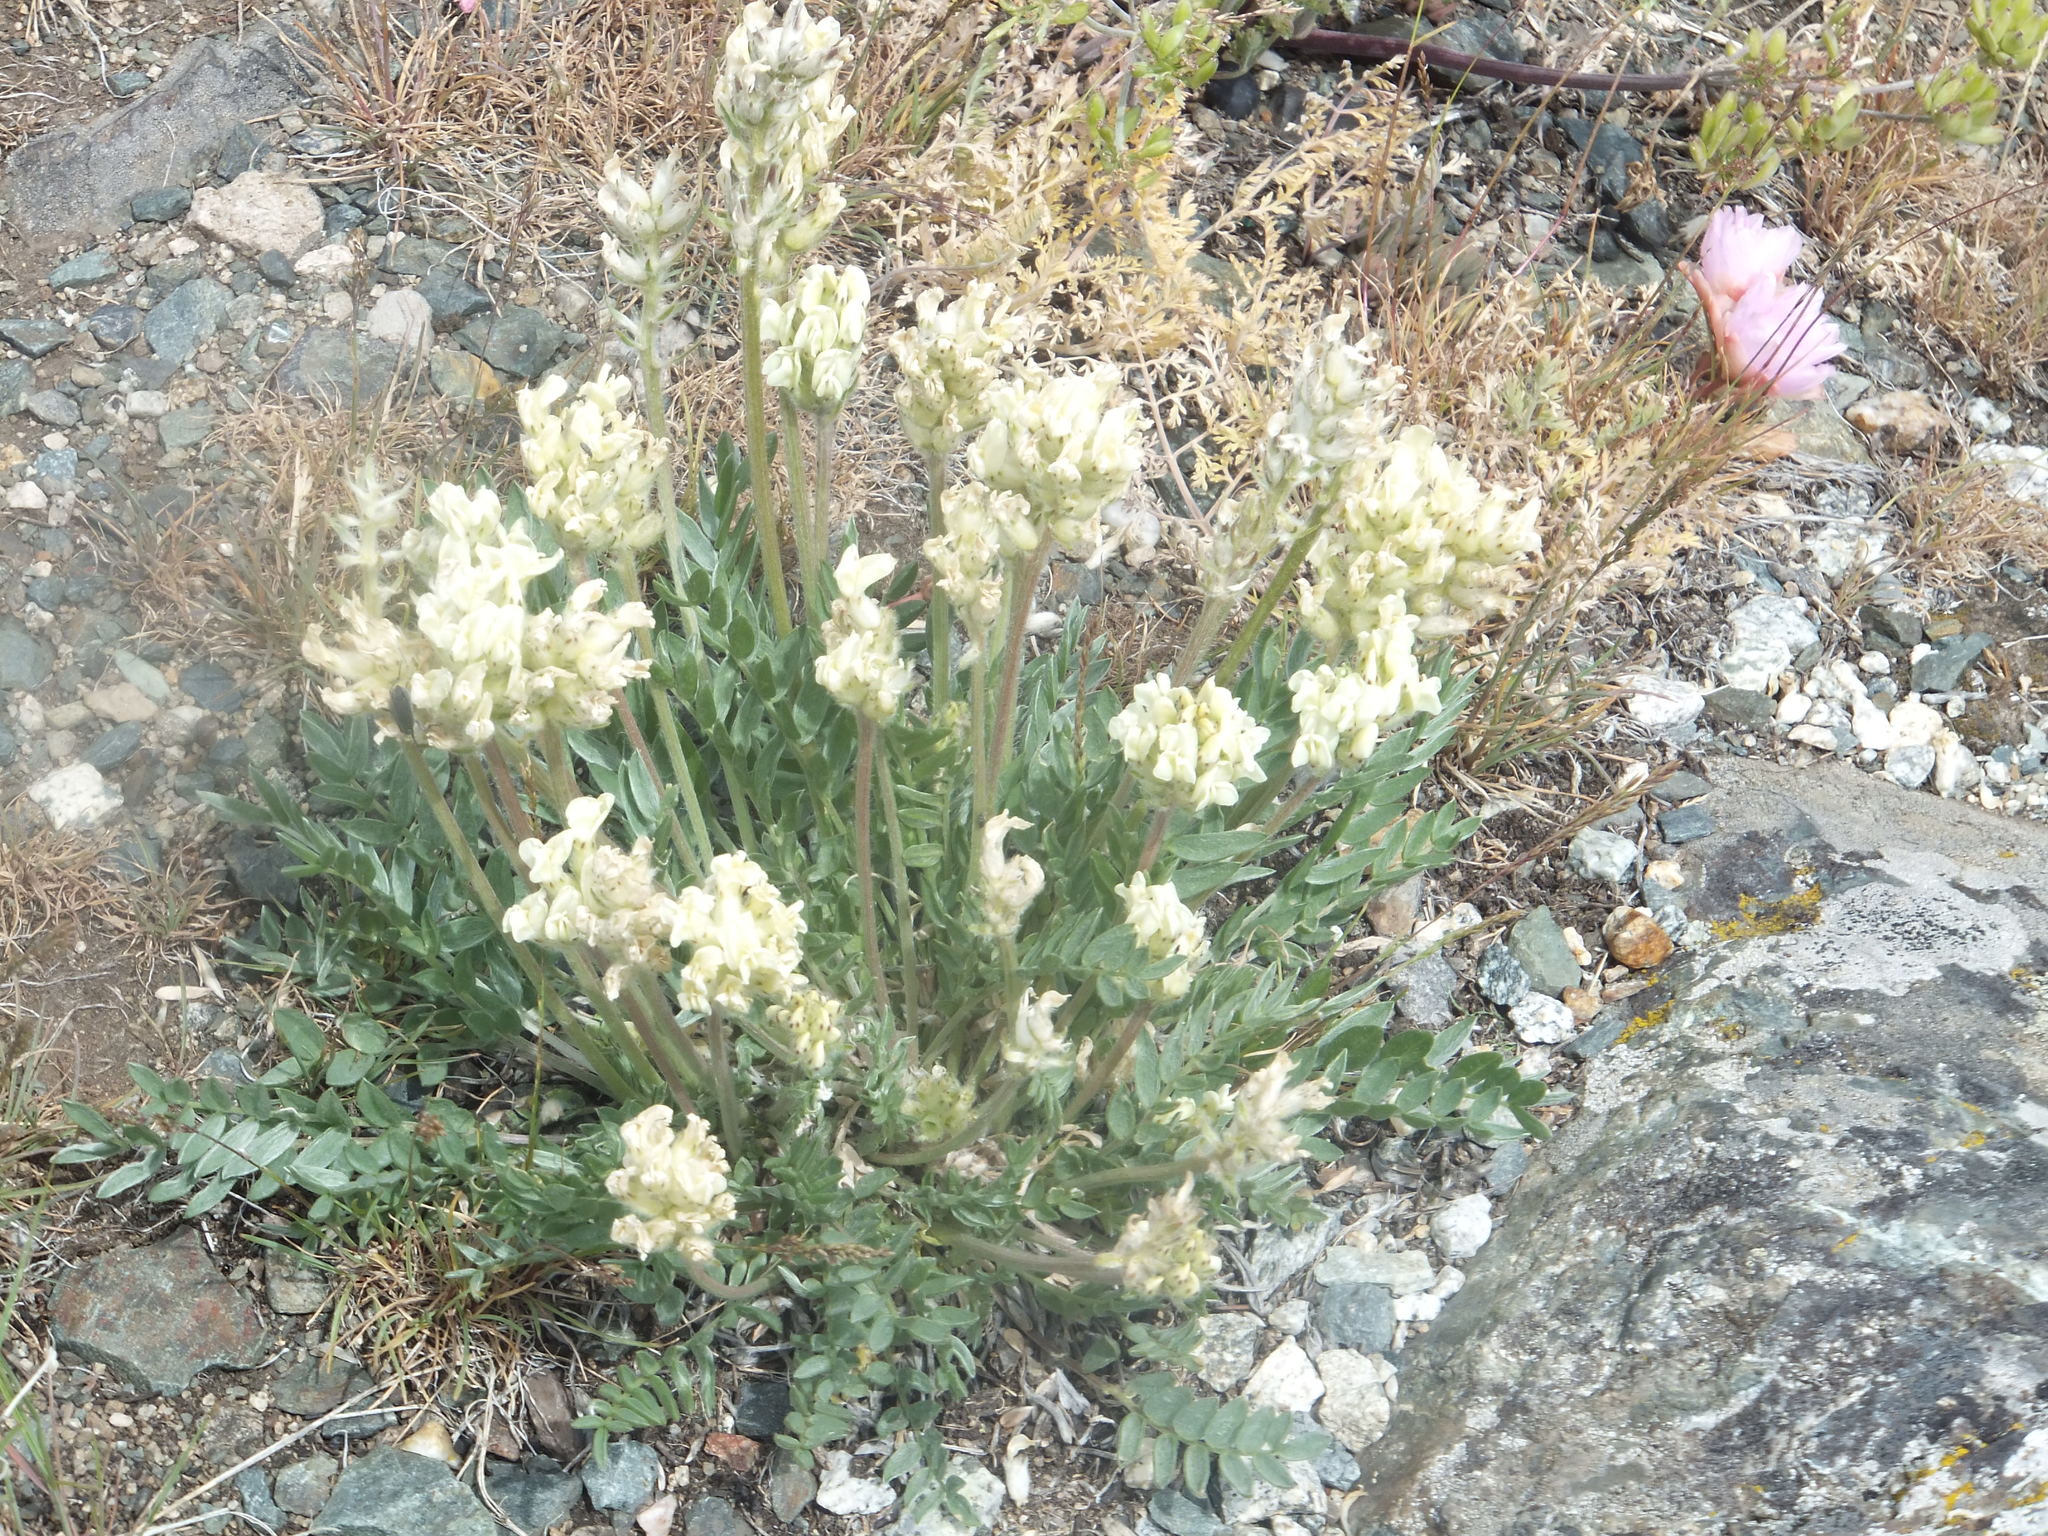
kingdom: Plantae
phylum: Tracheophyta
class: Magnoliopsida
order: Fabales
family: Fabaceae
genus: Oxytropis
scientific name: Oxytropis campestris
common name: Field locoweed
